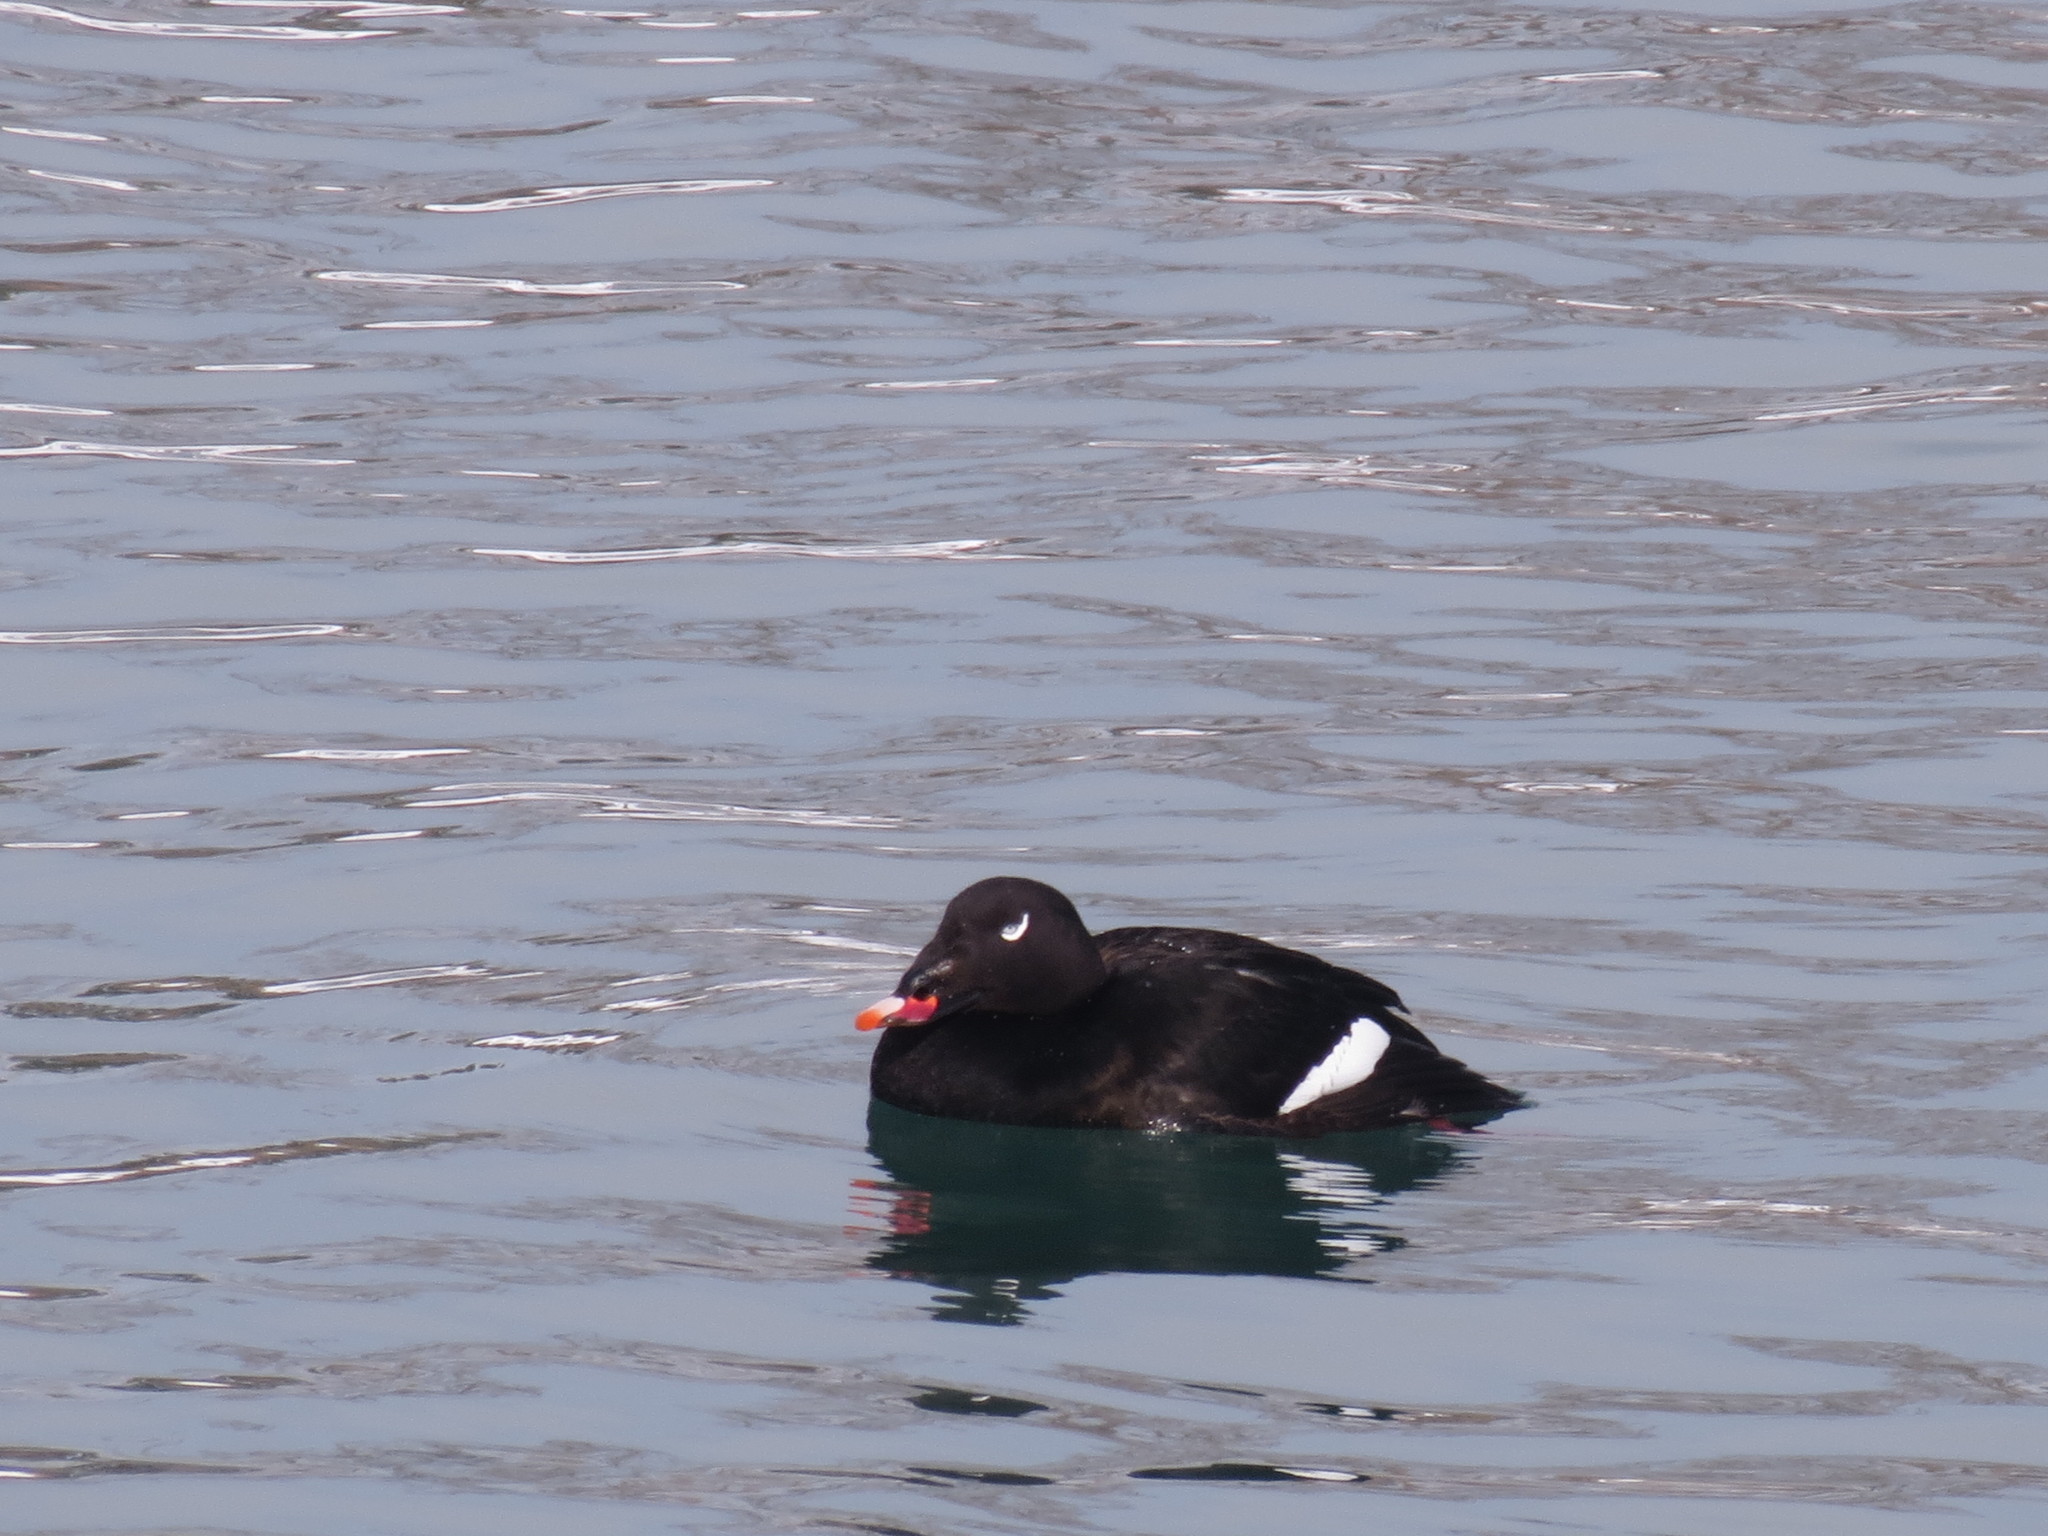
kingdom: Animalia
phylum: Chordata
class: Aves
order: Anseriformes
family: Anatidae
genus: Melanitta
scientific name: Melanitta deglandi
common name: White-winged scoter
